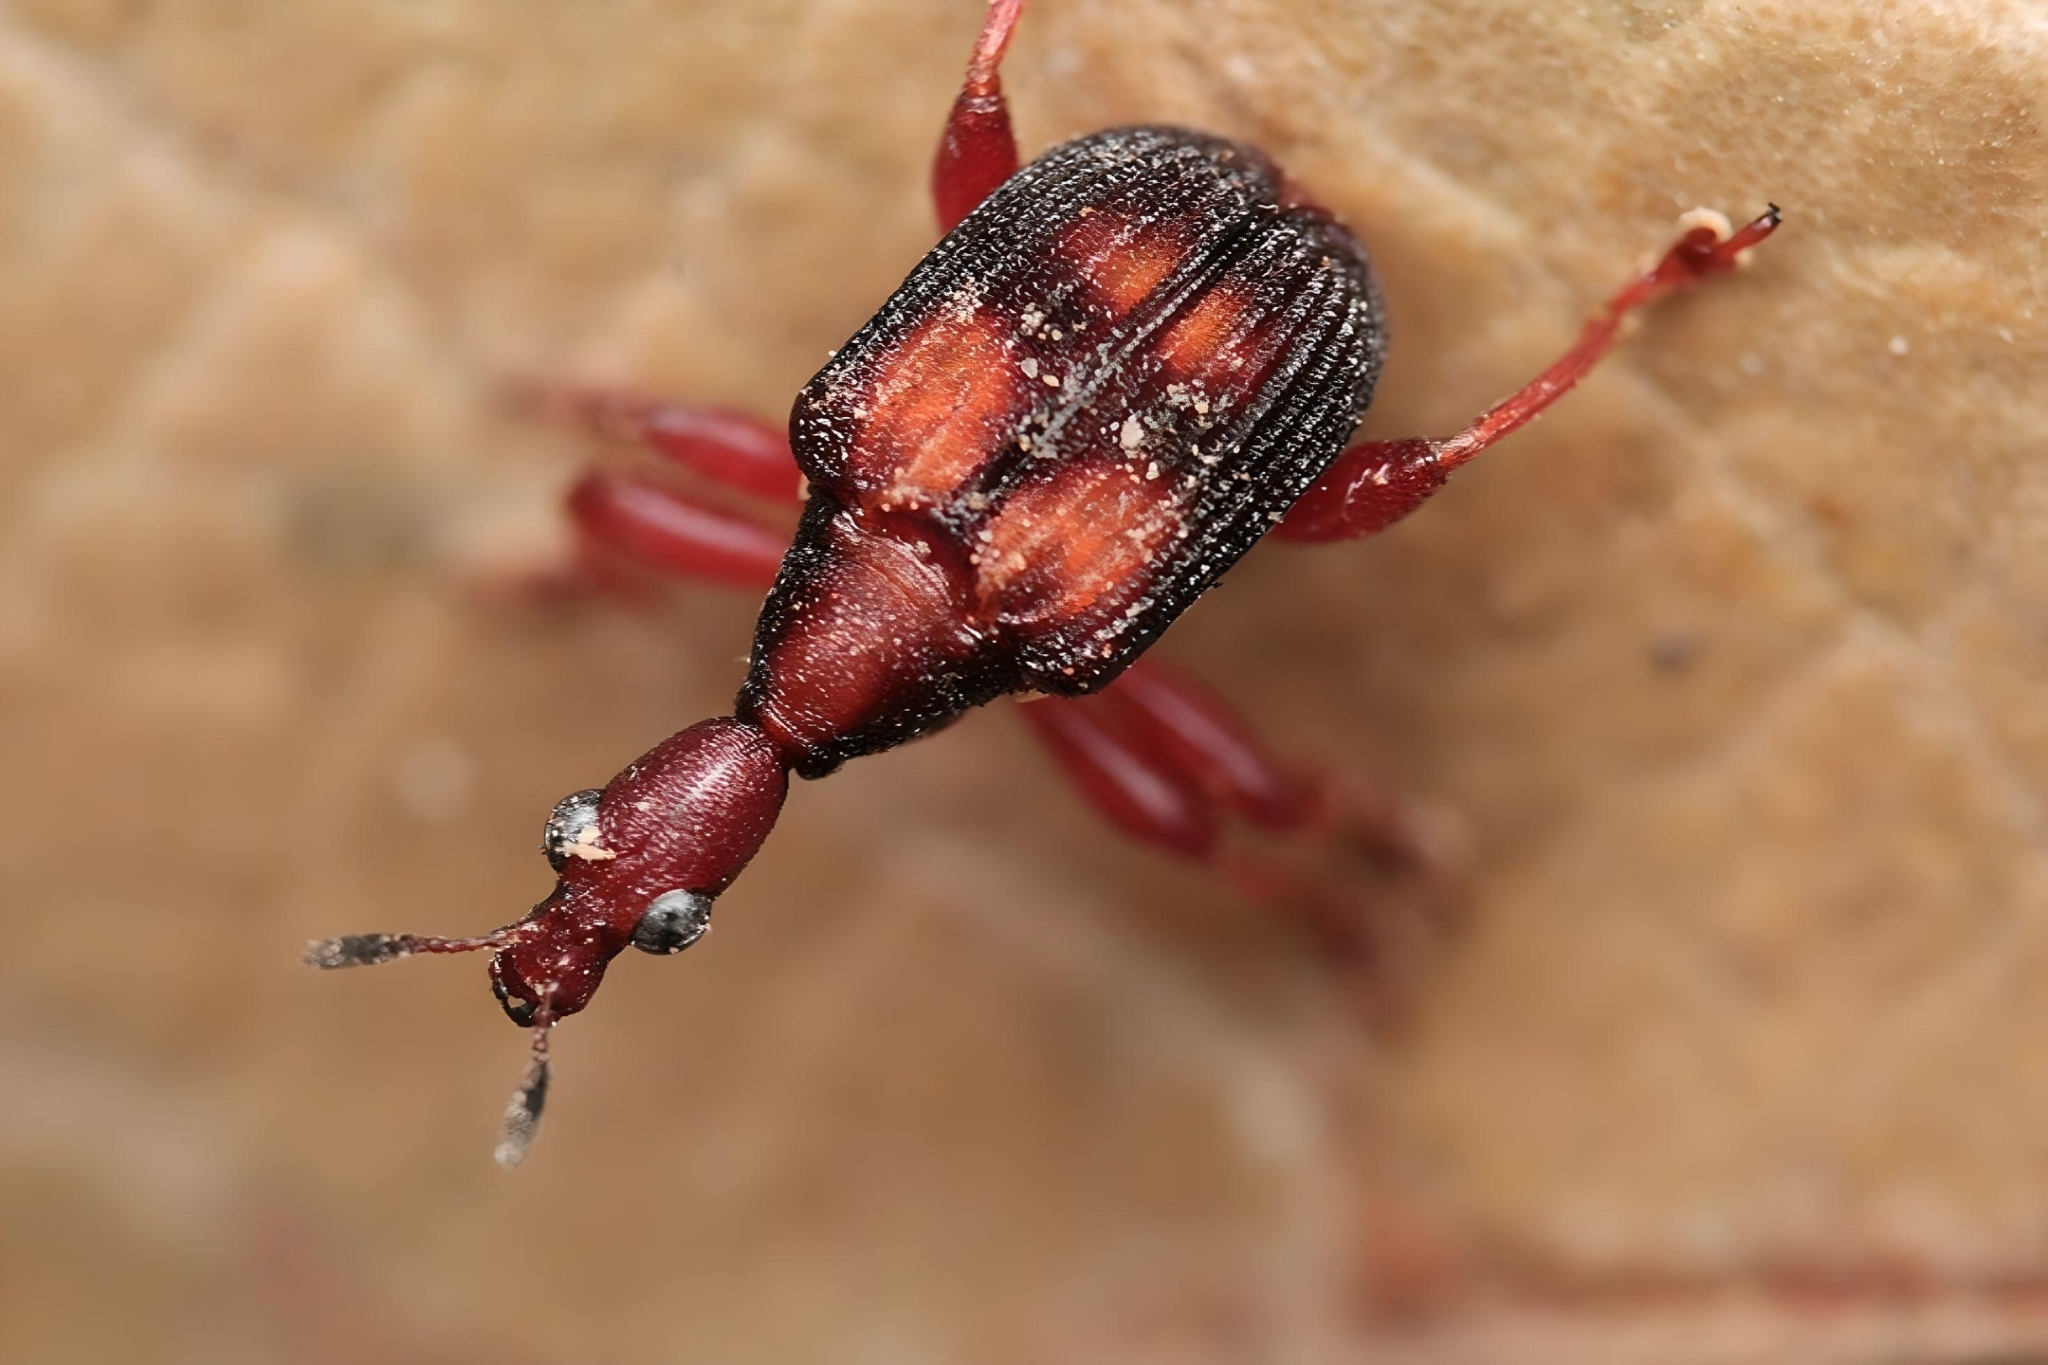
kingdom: Animalia
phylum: Arthropoda
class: Insecta
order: Coleoptera
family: Attelabidae
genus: Parapoderus
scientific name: Parapoderus submarginatus
